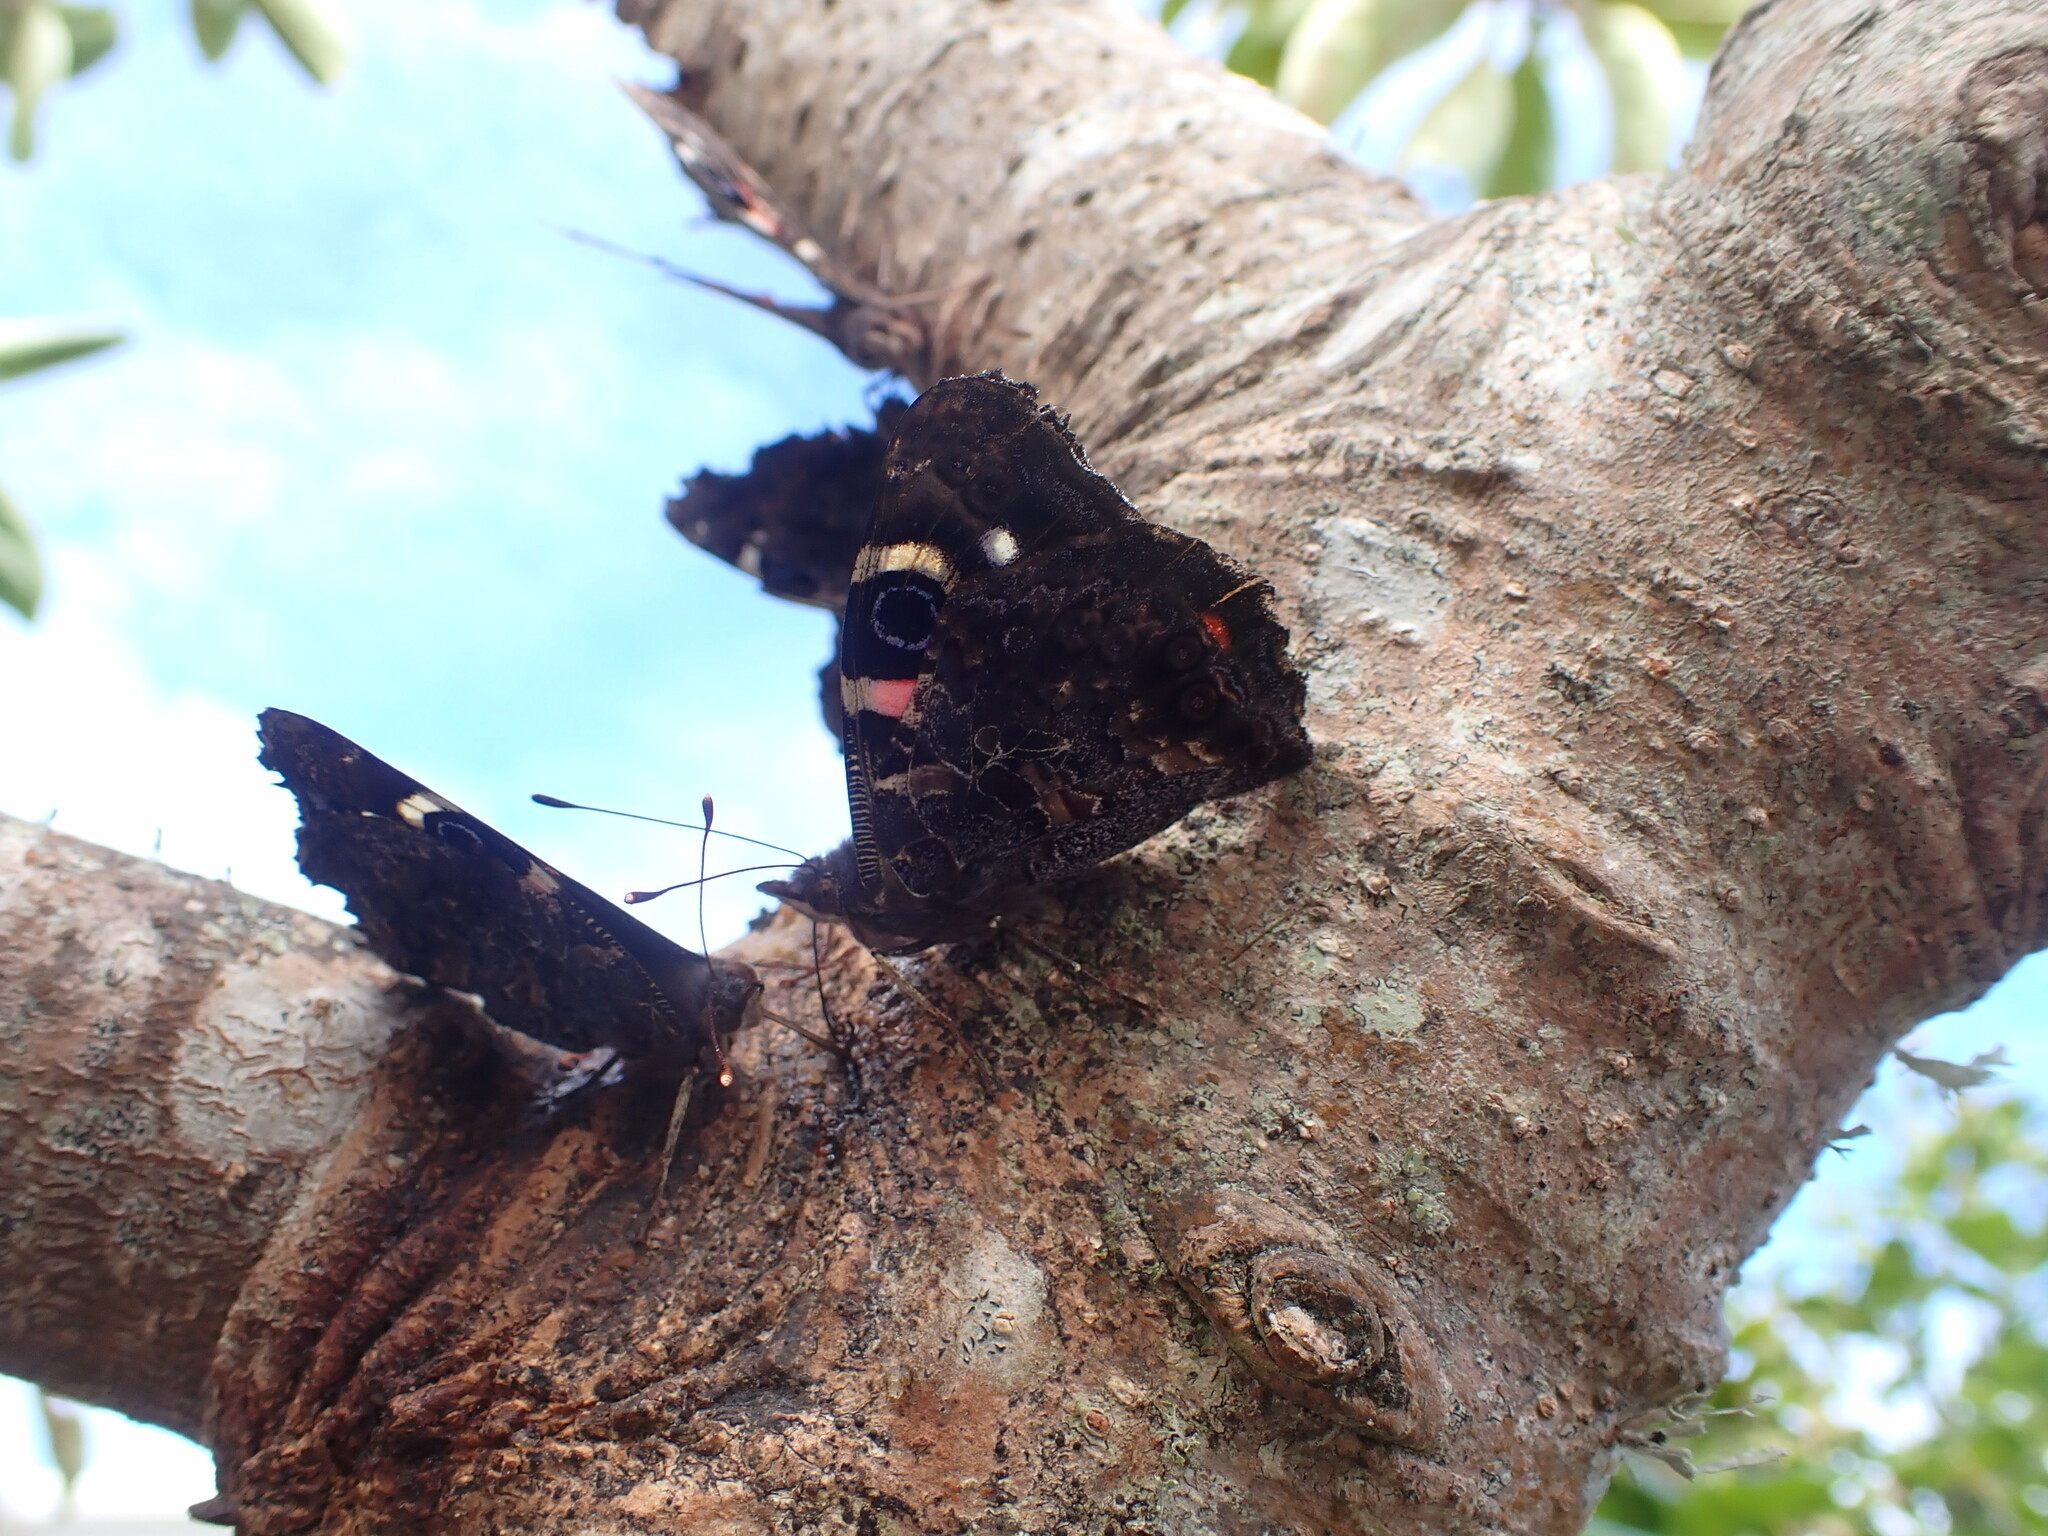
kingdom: Animalia
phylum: Arthropoda
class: Insecta
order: Lepidoptera
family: Nymphalidae
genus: Vanessa
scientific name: Vanessa gonerilla
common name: New zealand red admiral
